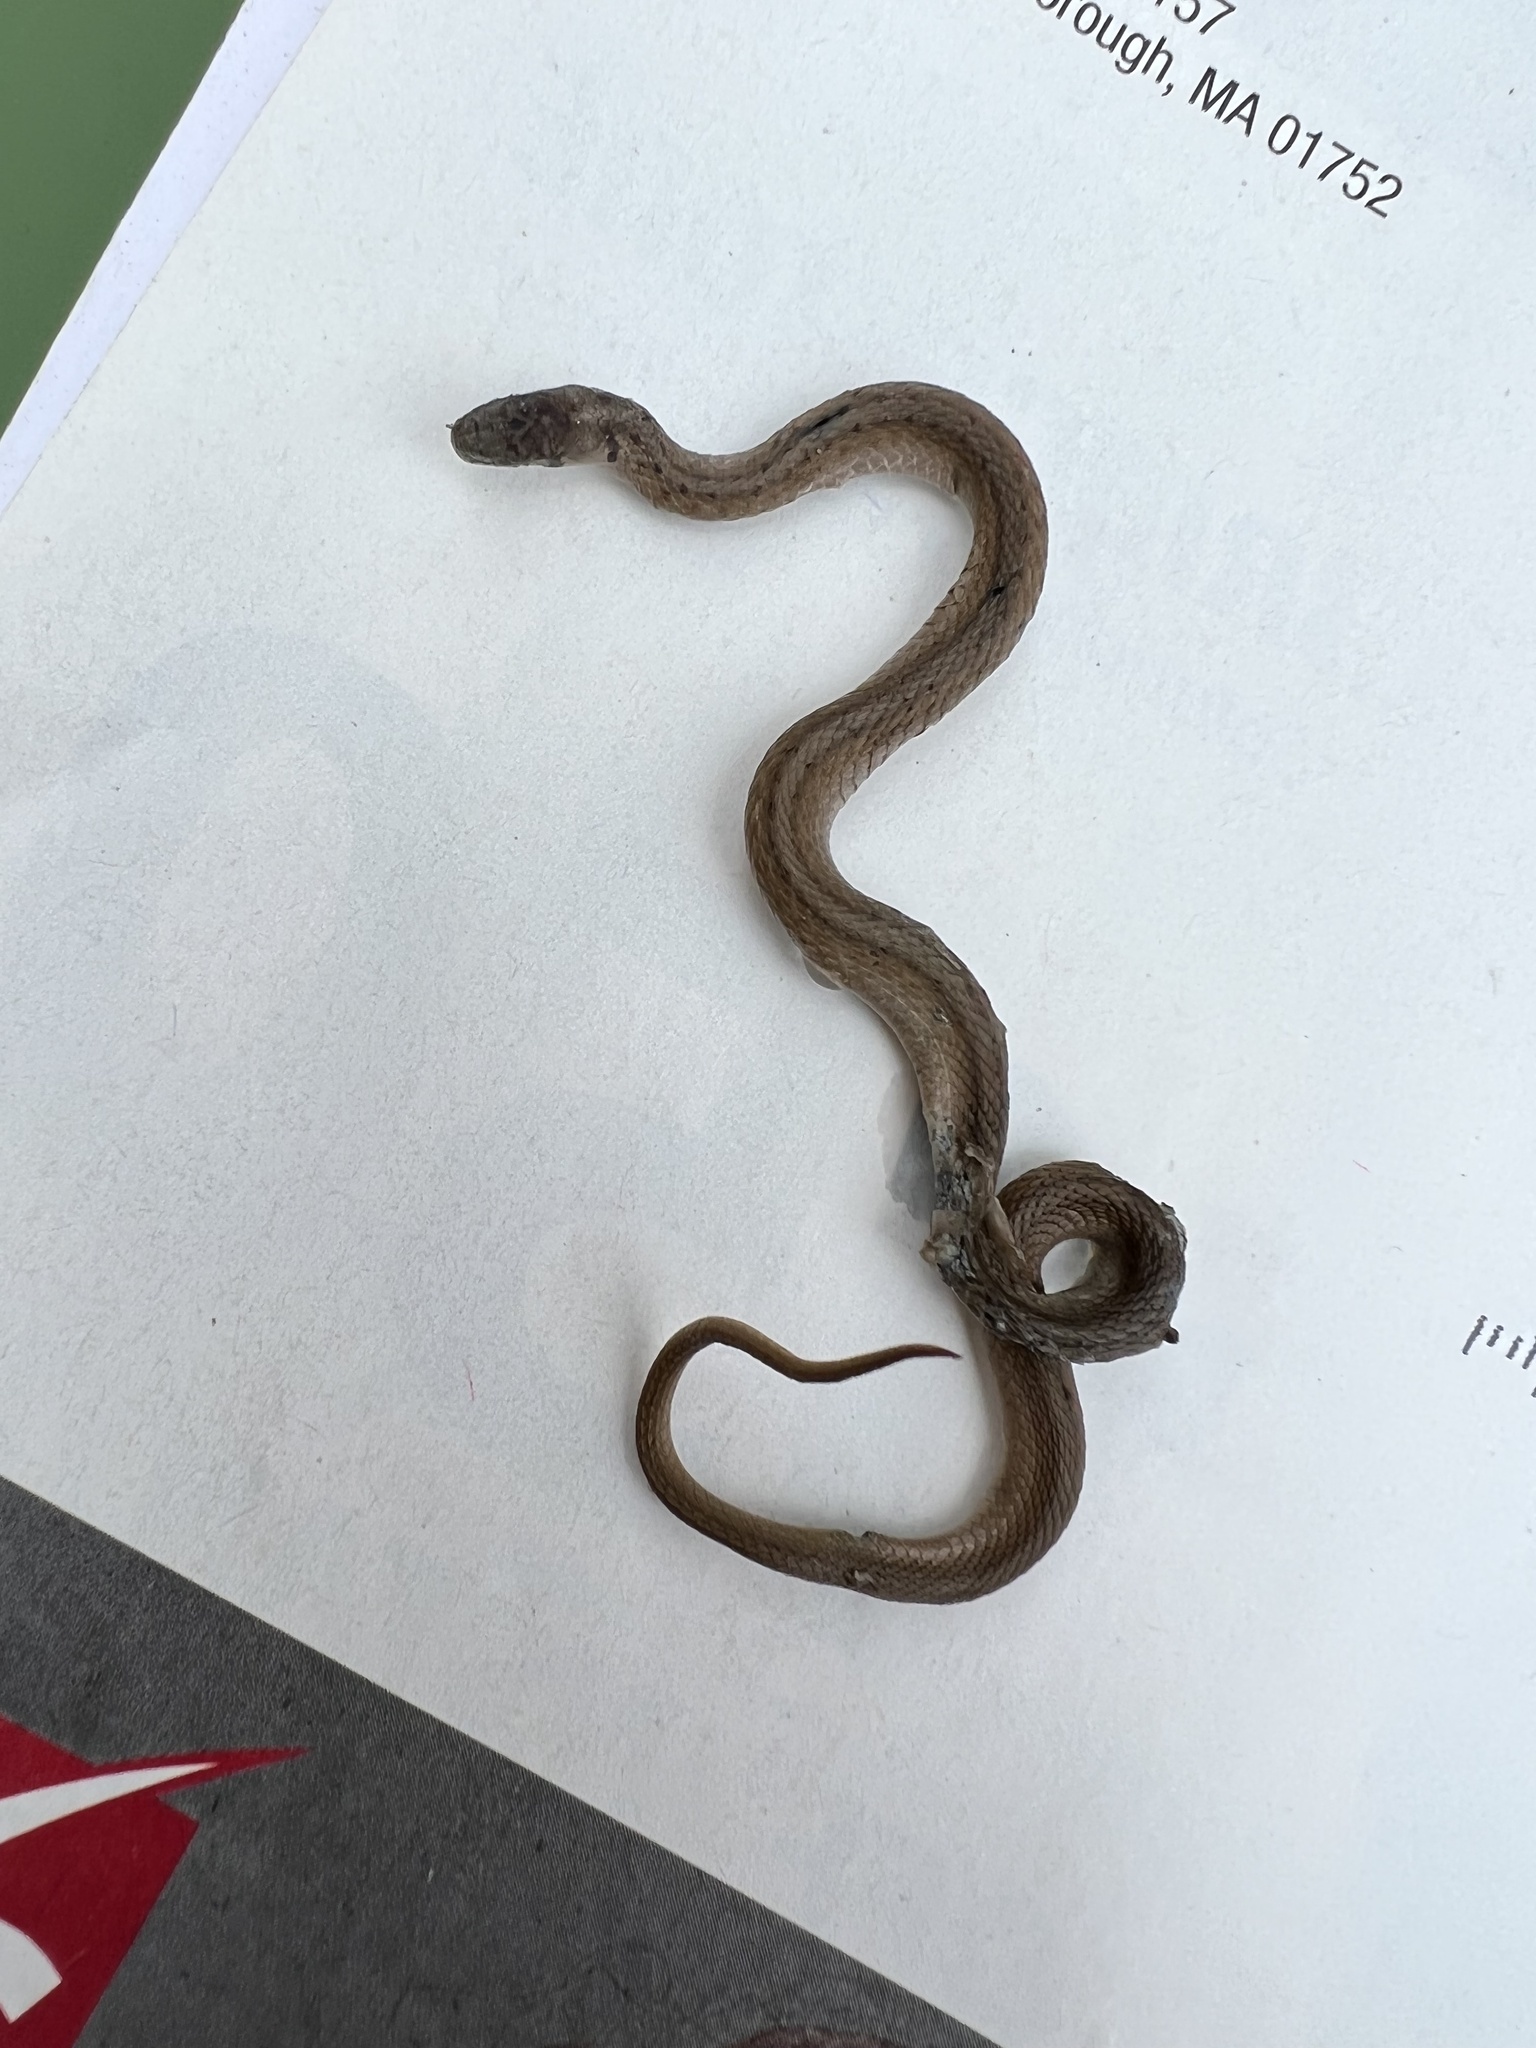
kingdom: Animalia
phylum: Chordata
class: Squamata
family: Colubridae
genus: Storeria
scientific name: Storeria dekayi
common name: (dekay’s) brown snake
